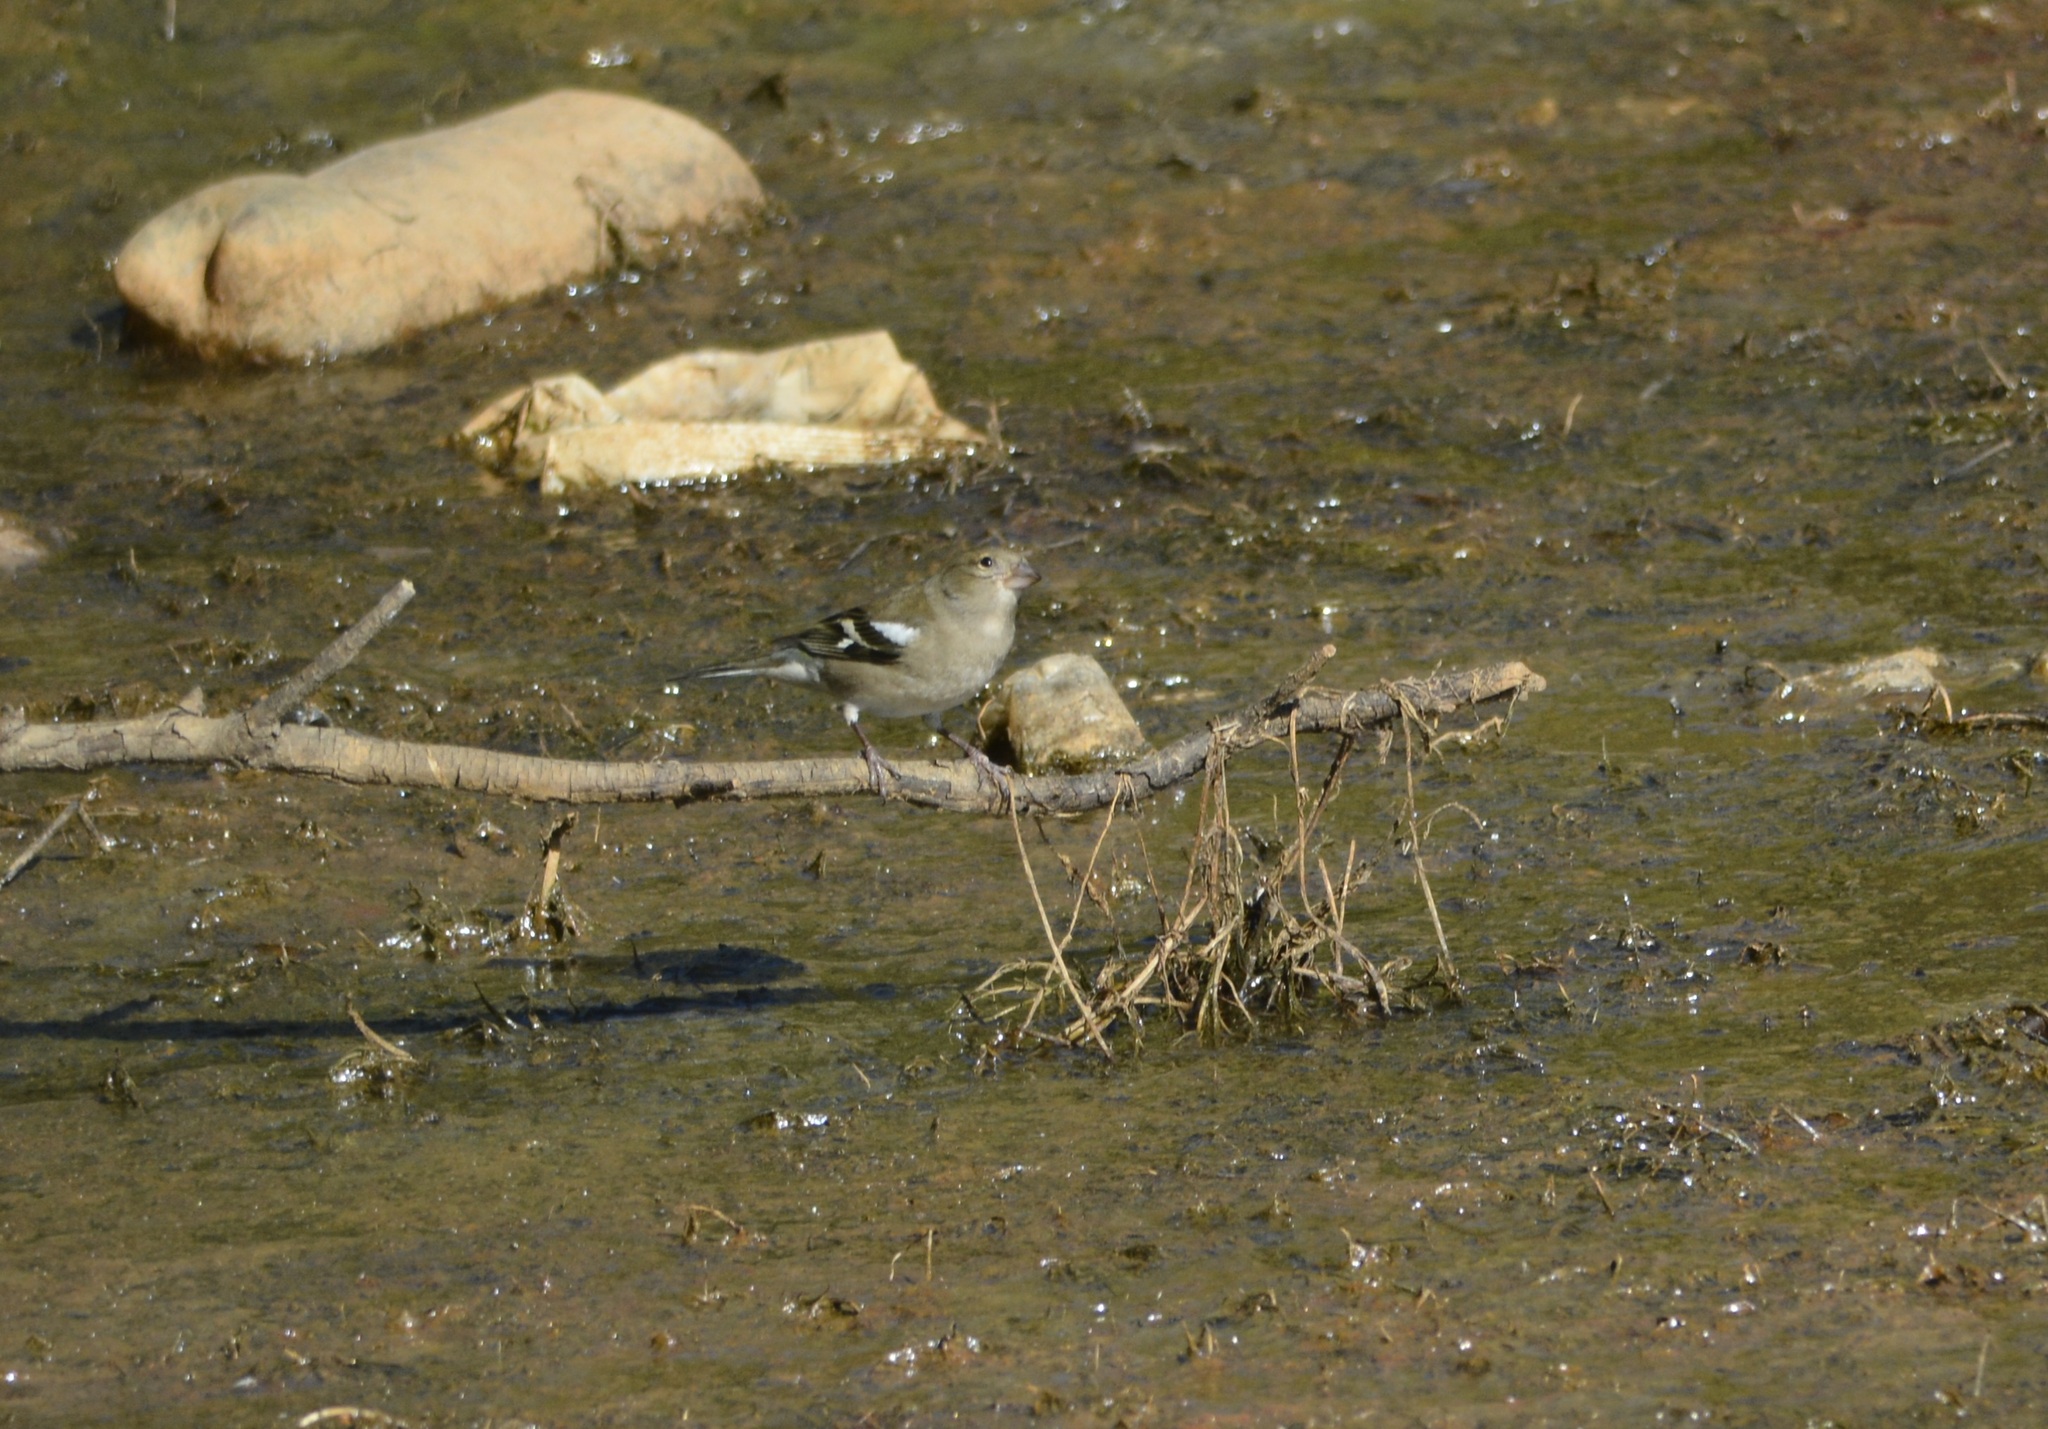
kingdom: Animalia
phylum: Chordata
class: Aves
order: Passeriformes
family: Fringillidae
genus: Fringilla
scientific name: Fringilla spodiogenys
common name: African chaffinch
